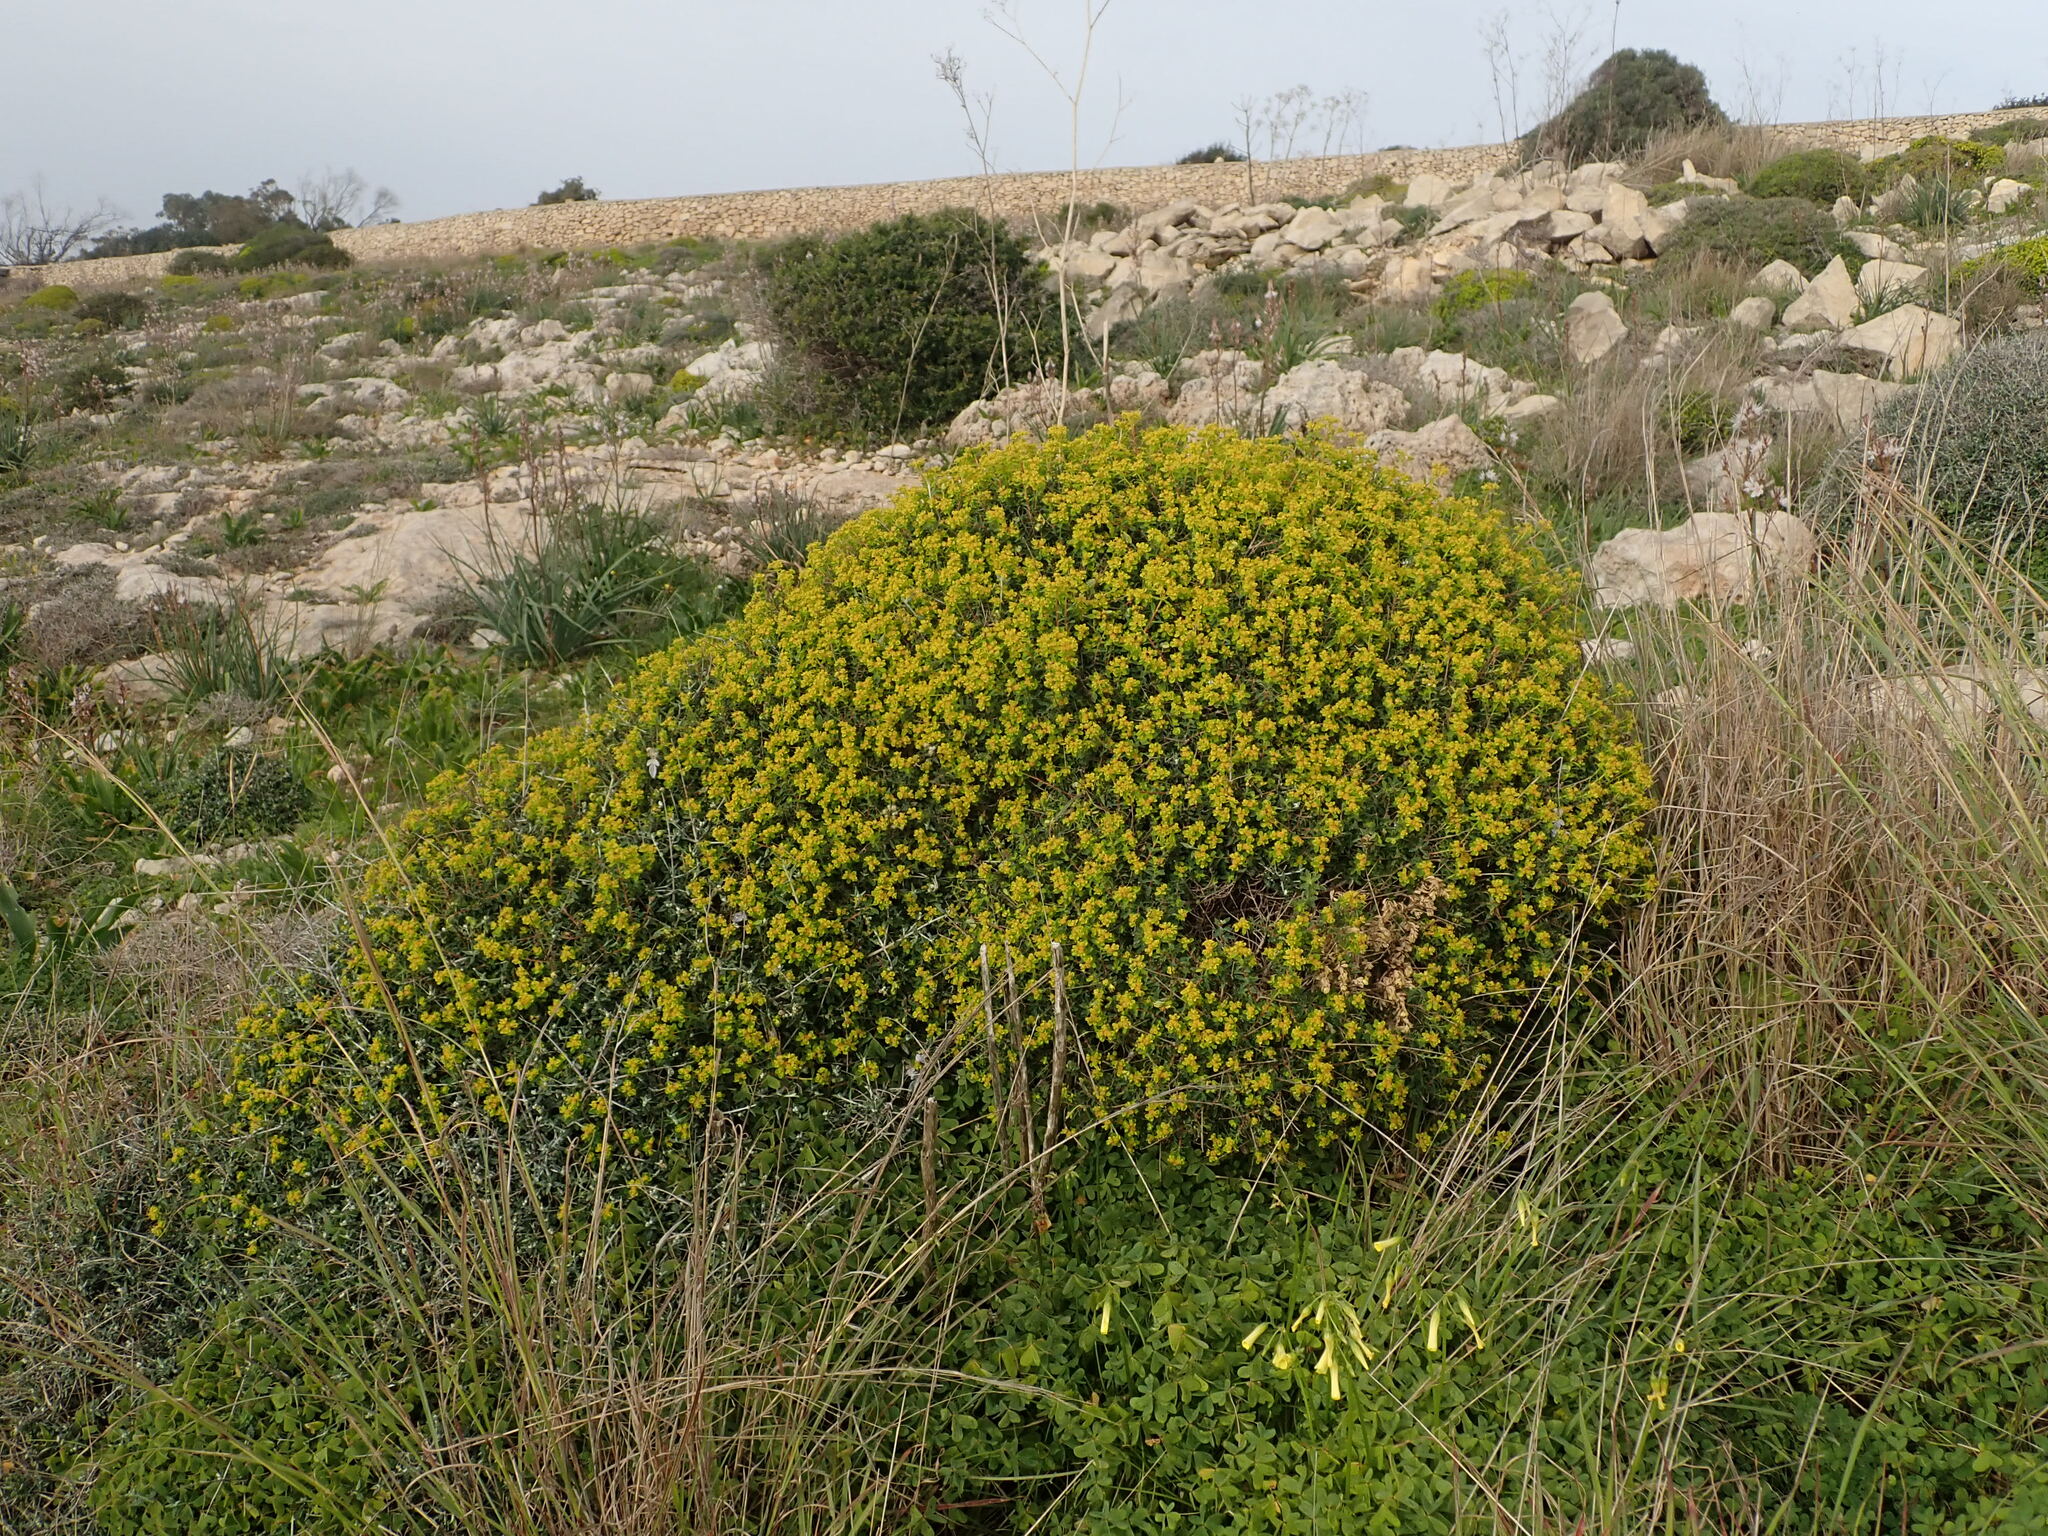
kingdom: Plantae
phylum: Tracheophyta
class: Magnoliopsida
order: Malpighiales
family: Euphorbiaceae
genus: Euphorbia
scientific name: Euphorbia melitensis
